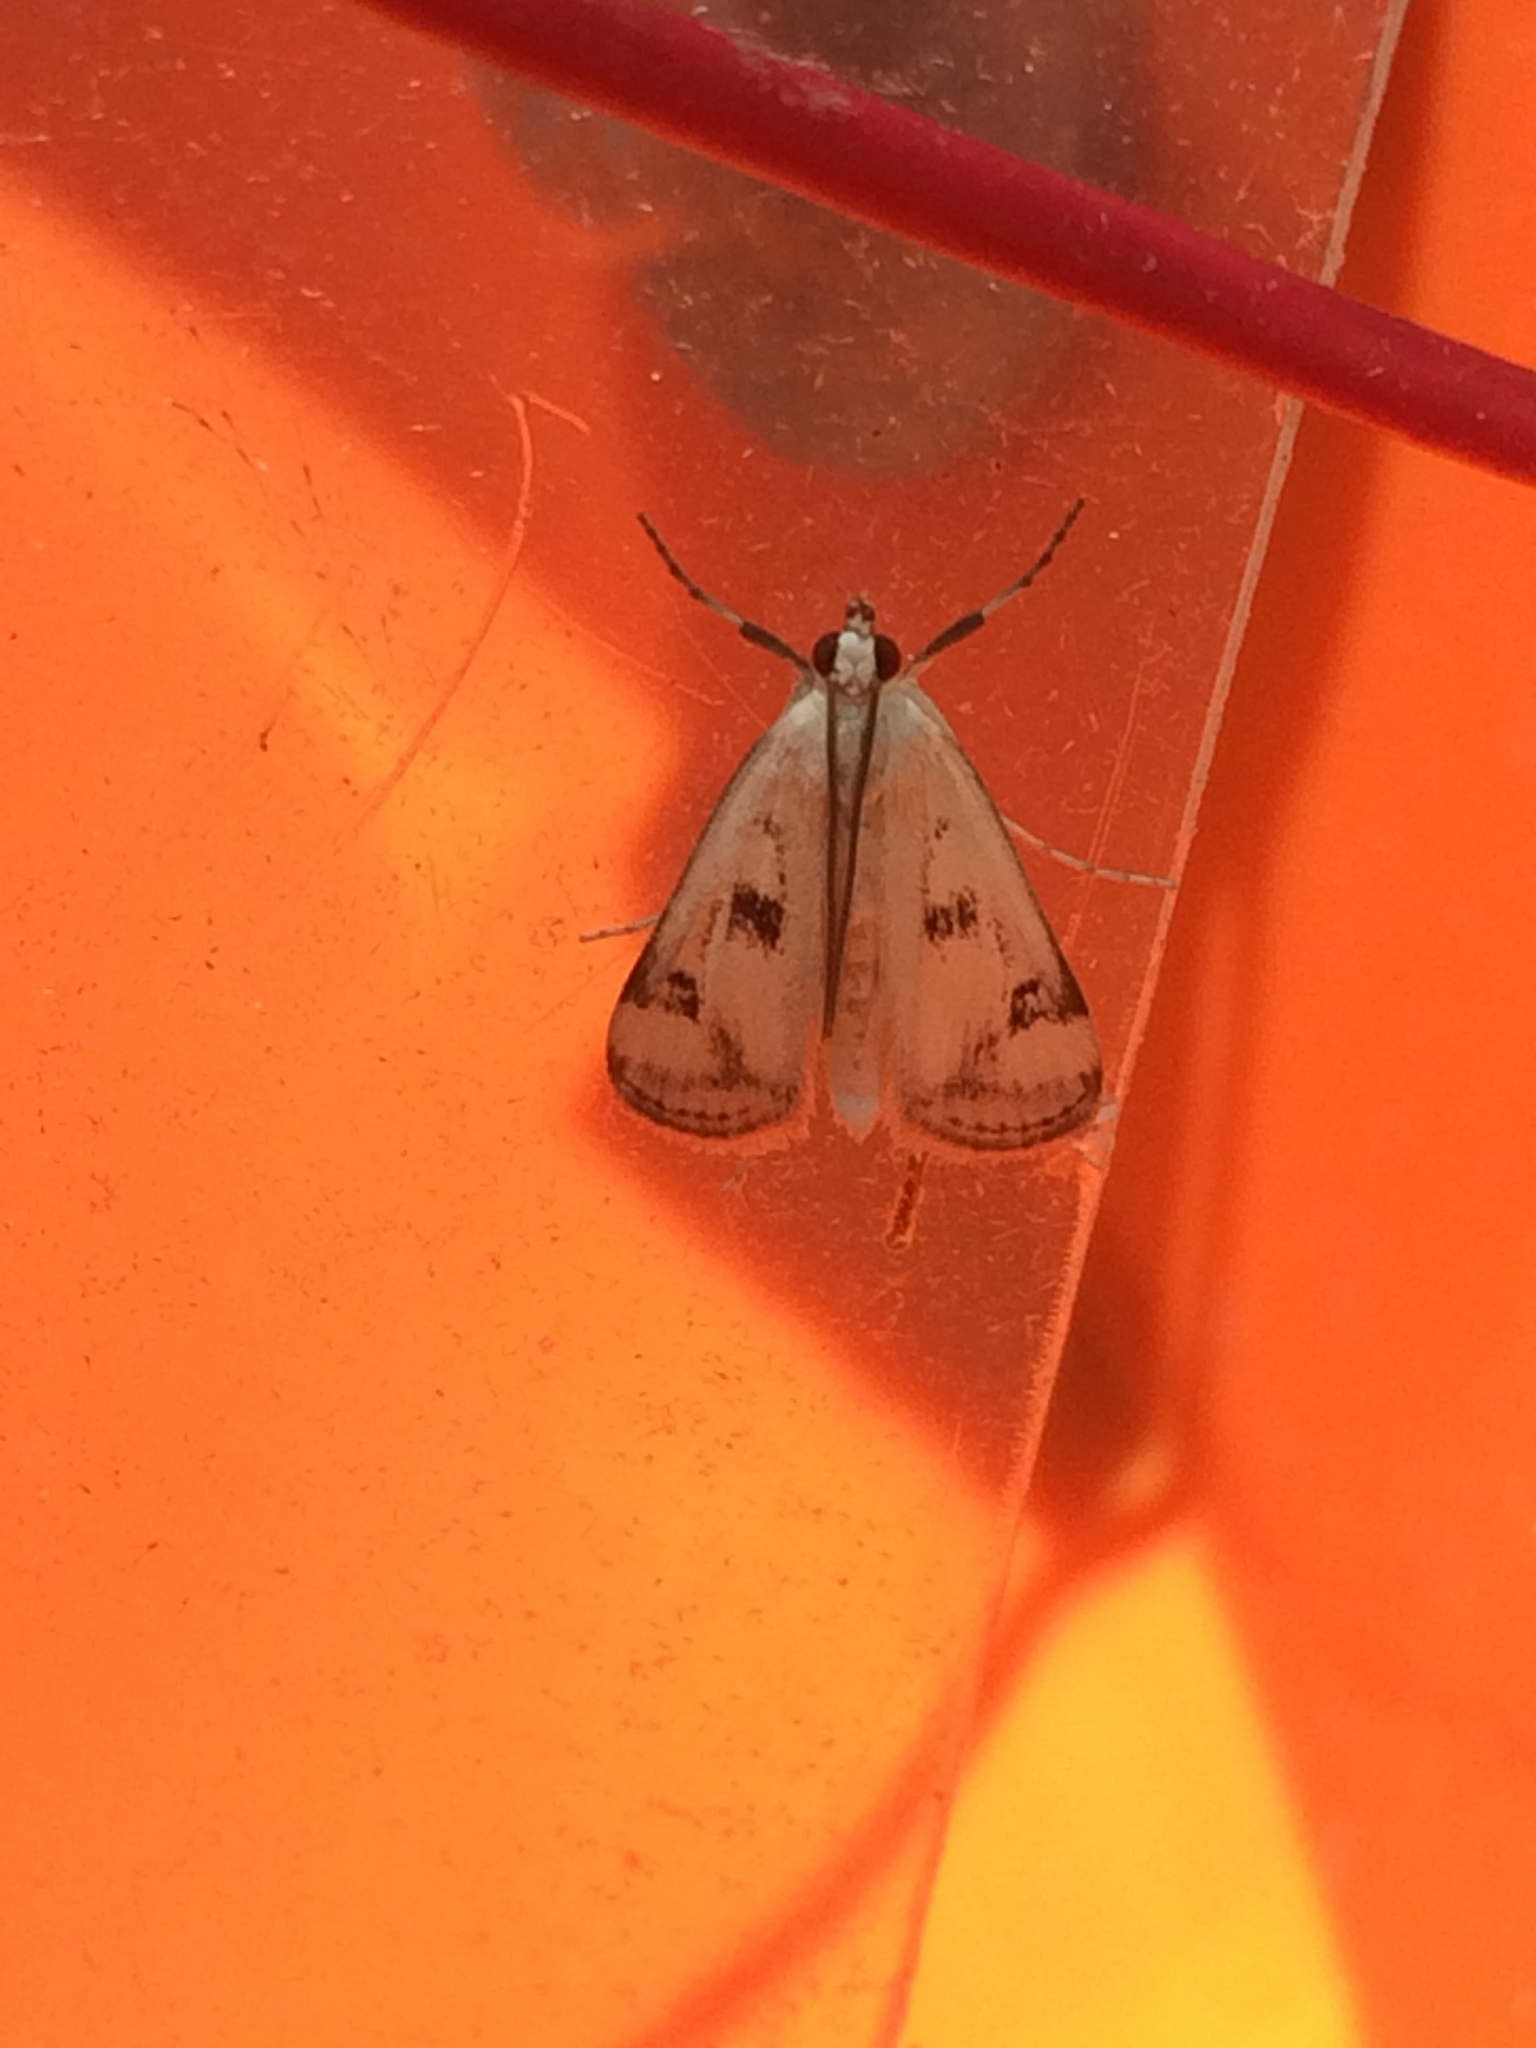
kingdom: Animalia
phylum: Arthropoda
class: Insecta
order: Lepidoptera
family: Crambidae
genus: Parapoynx
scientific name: Parapoynx maculalis
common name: Polymorphic pondweed moth
